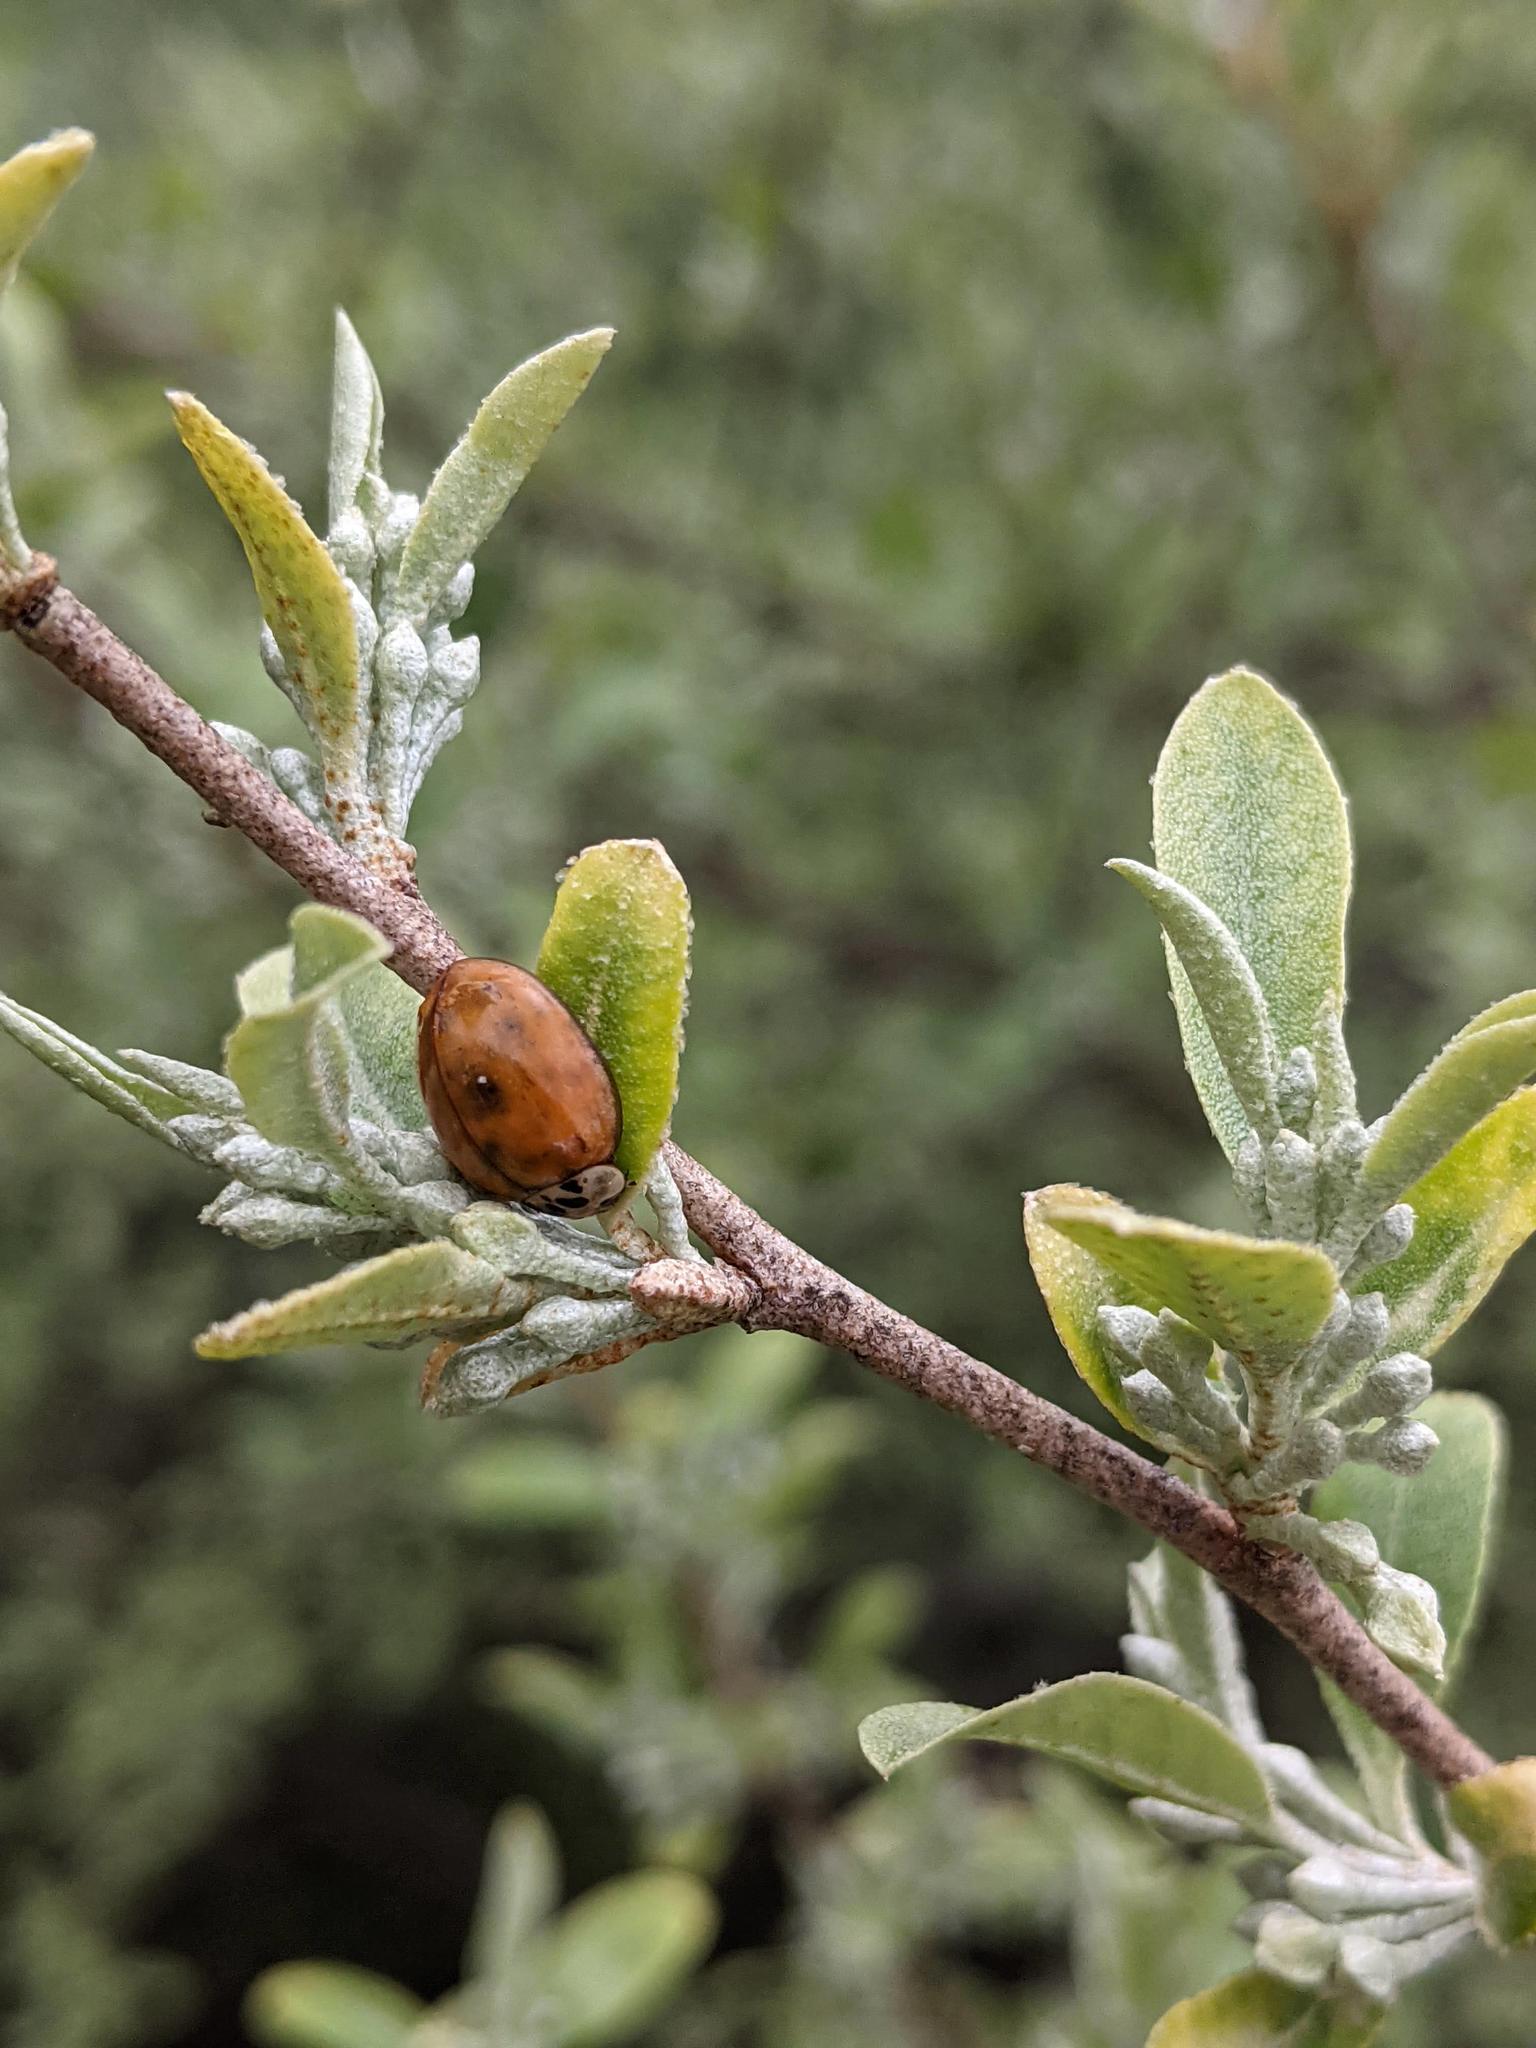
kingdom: Animalia
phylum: Arthropoda
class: Insecta
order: Coleoptera
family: Coccinellidae
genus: Harmonia
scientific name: Harmonia axyridis
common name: Harlequin ladybird
